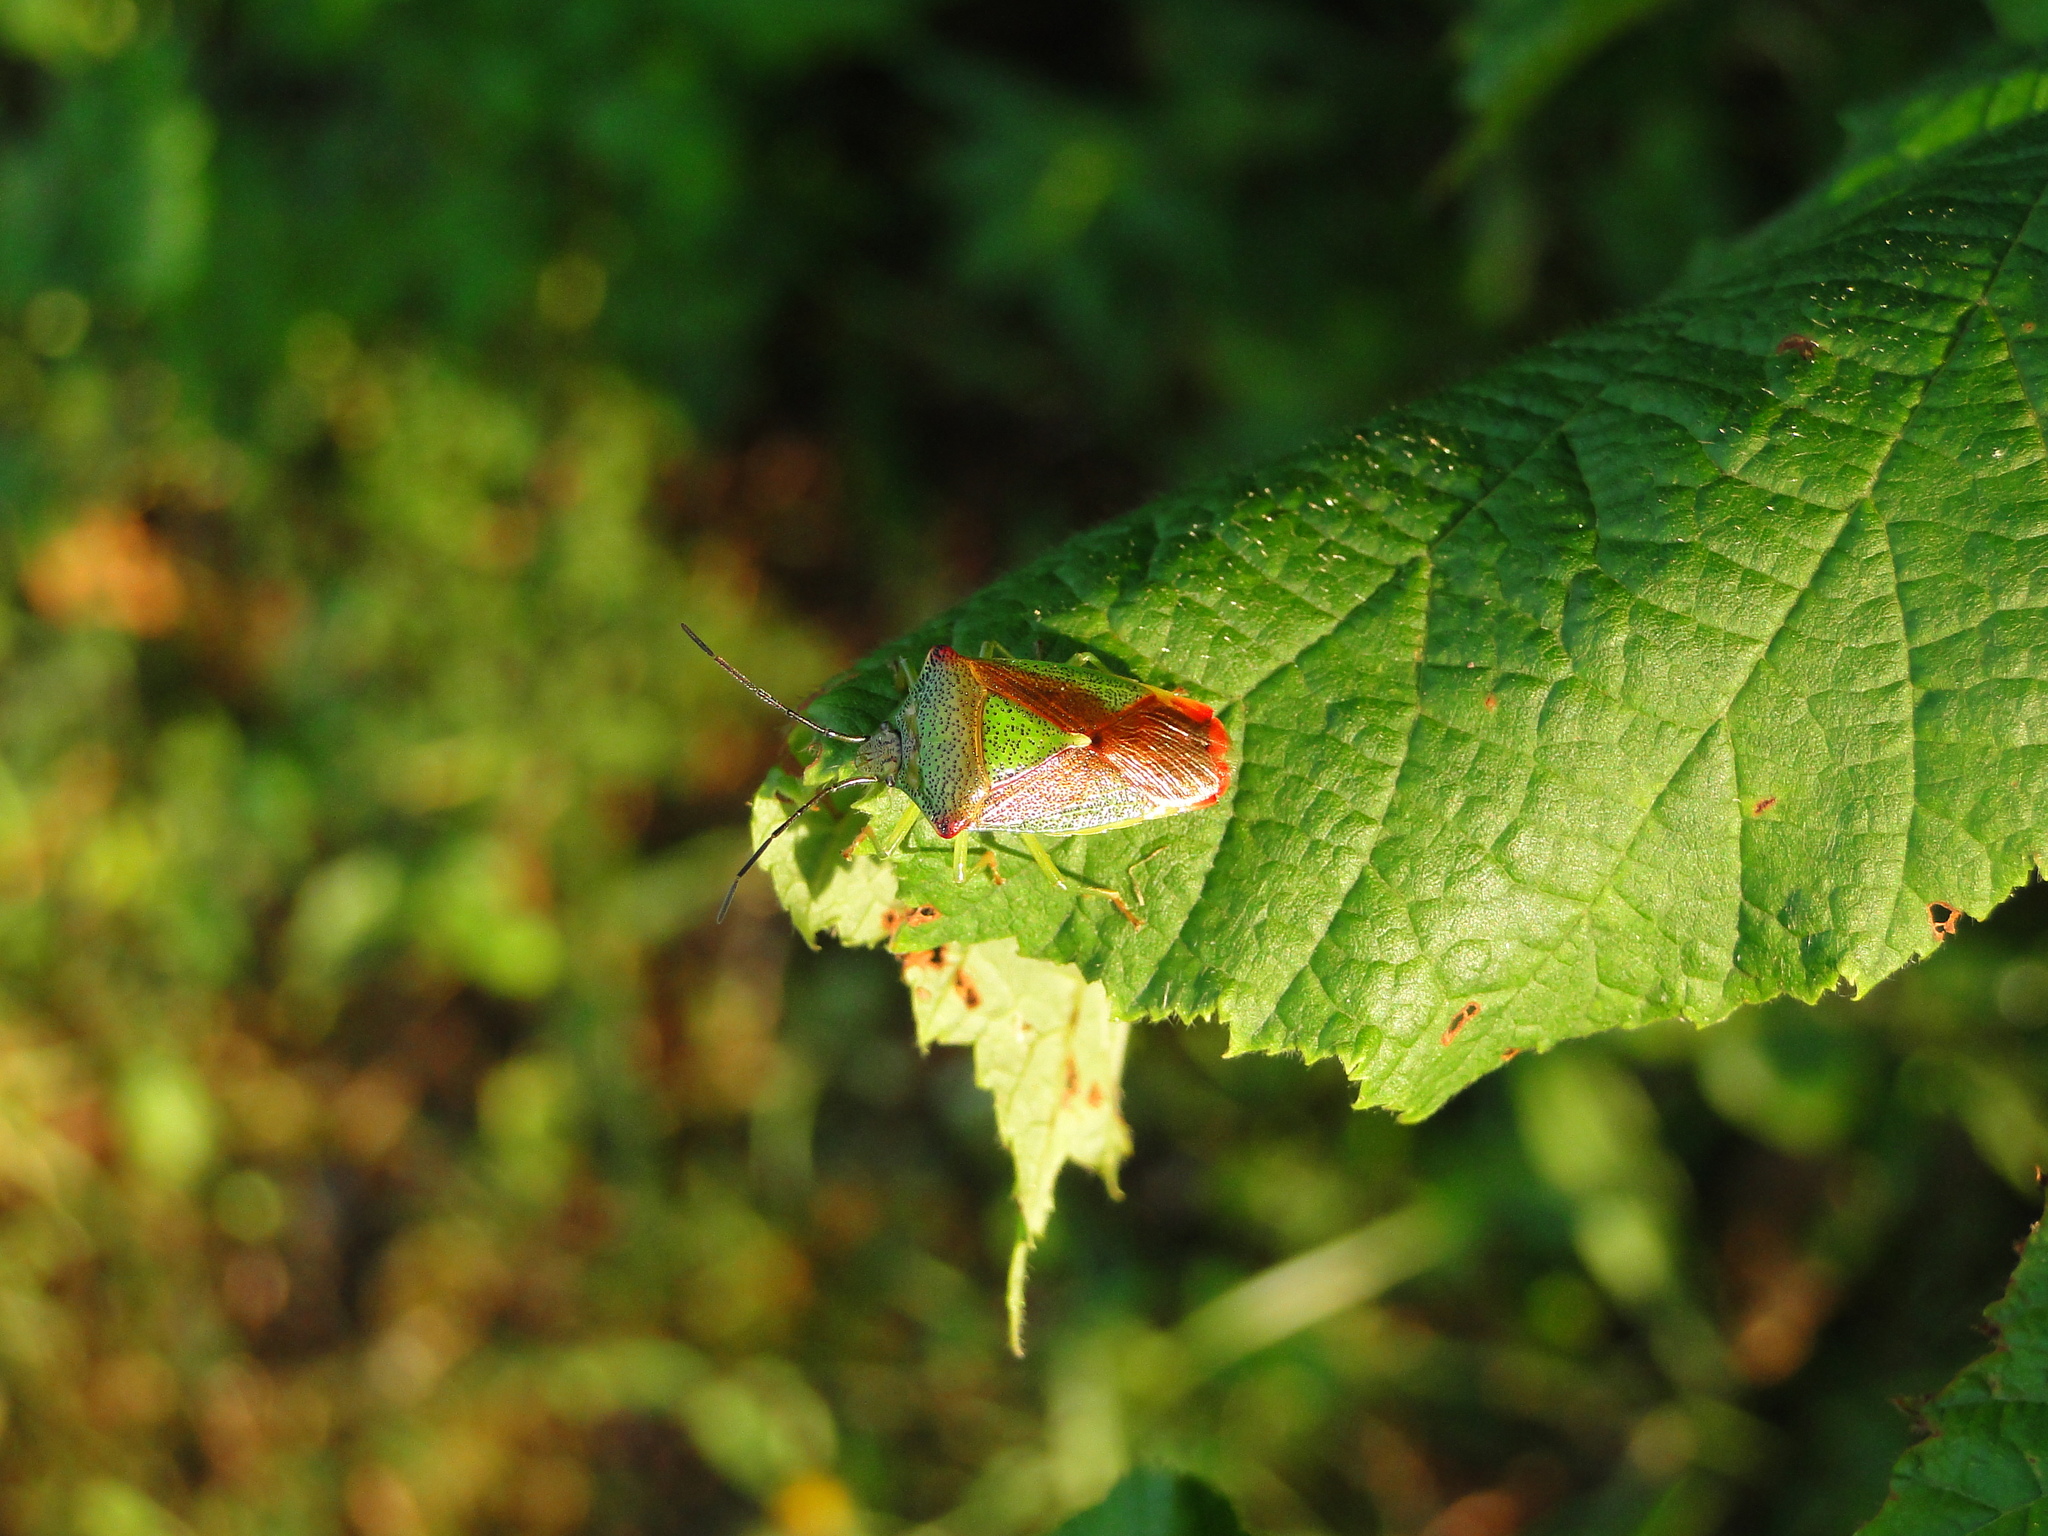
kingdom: Animalia
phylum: Arthropoda
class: Insecta
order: Hemiptera
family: Acanthosomatidae
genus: Acanthosoma
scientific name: Acanthosoma haemorrhoidale
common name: Hawthorn shieldbug
